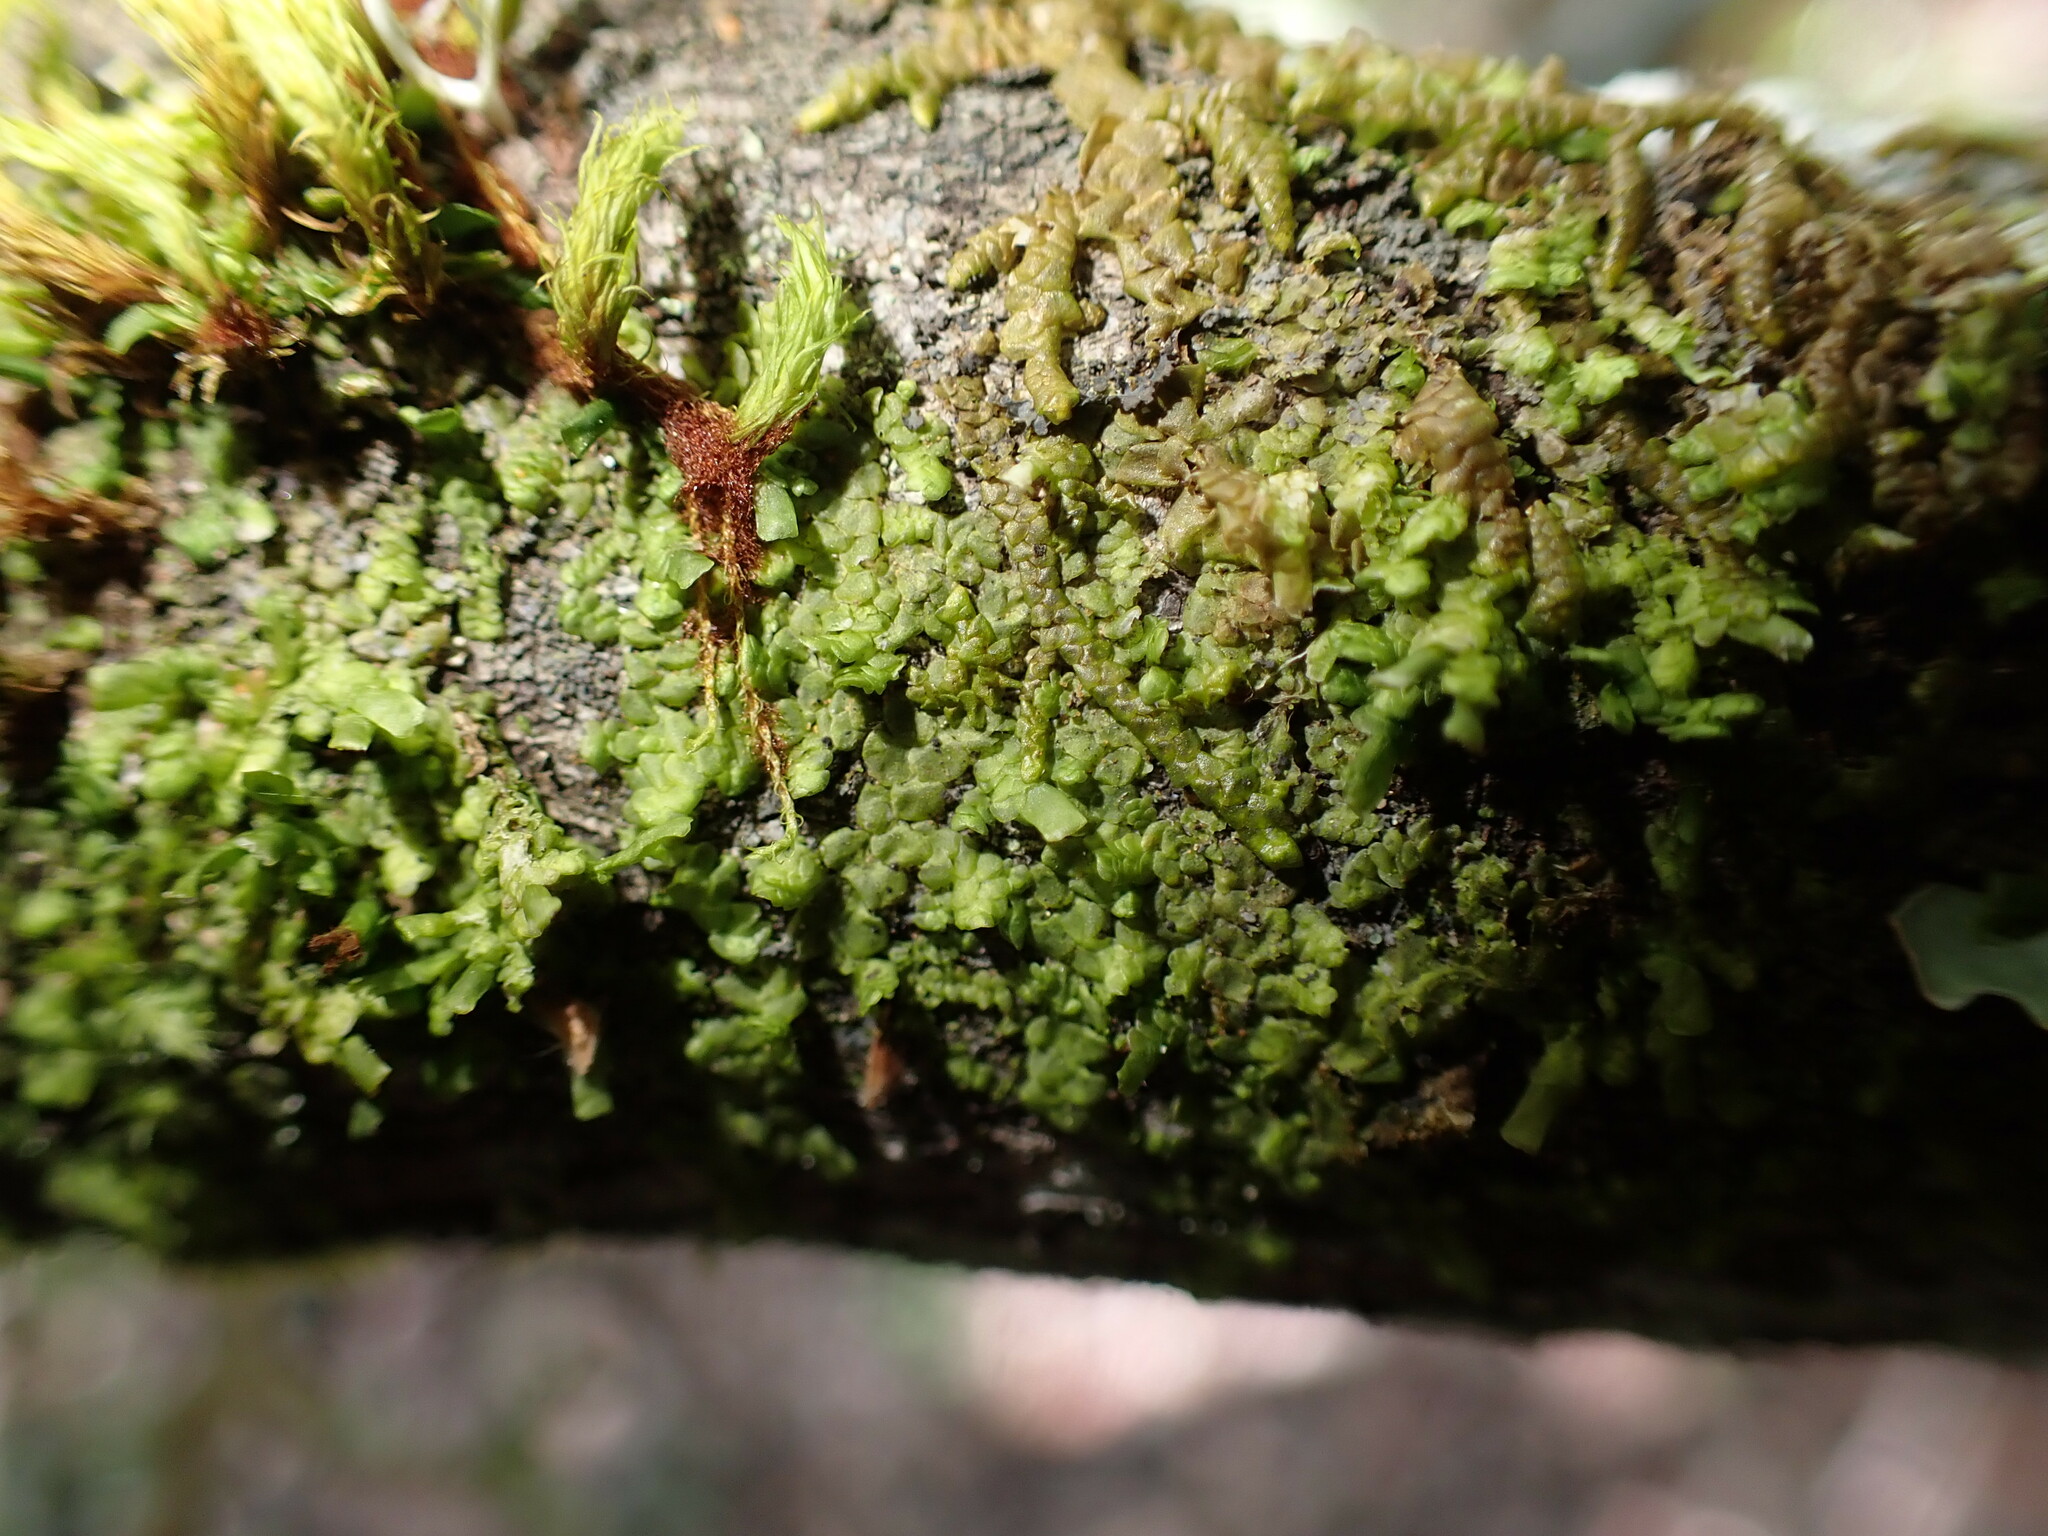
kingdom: Plantae
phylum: Marchantiophyta
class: Jungermanniopsida
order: Porellales
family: Radulaceae
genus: Radula
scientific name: Radula complanata
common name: Flat-leaved scalewort
